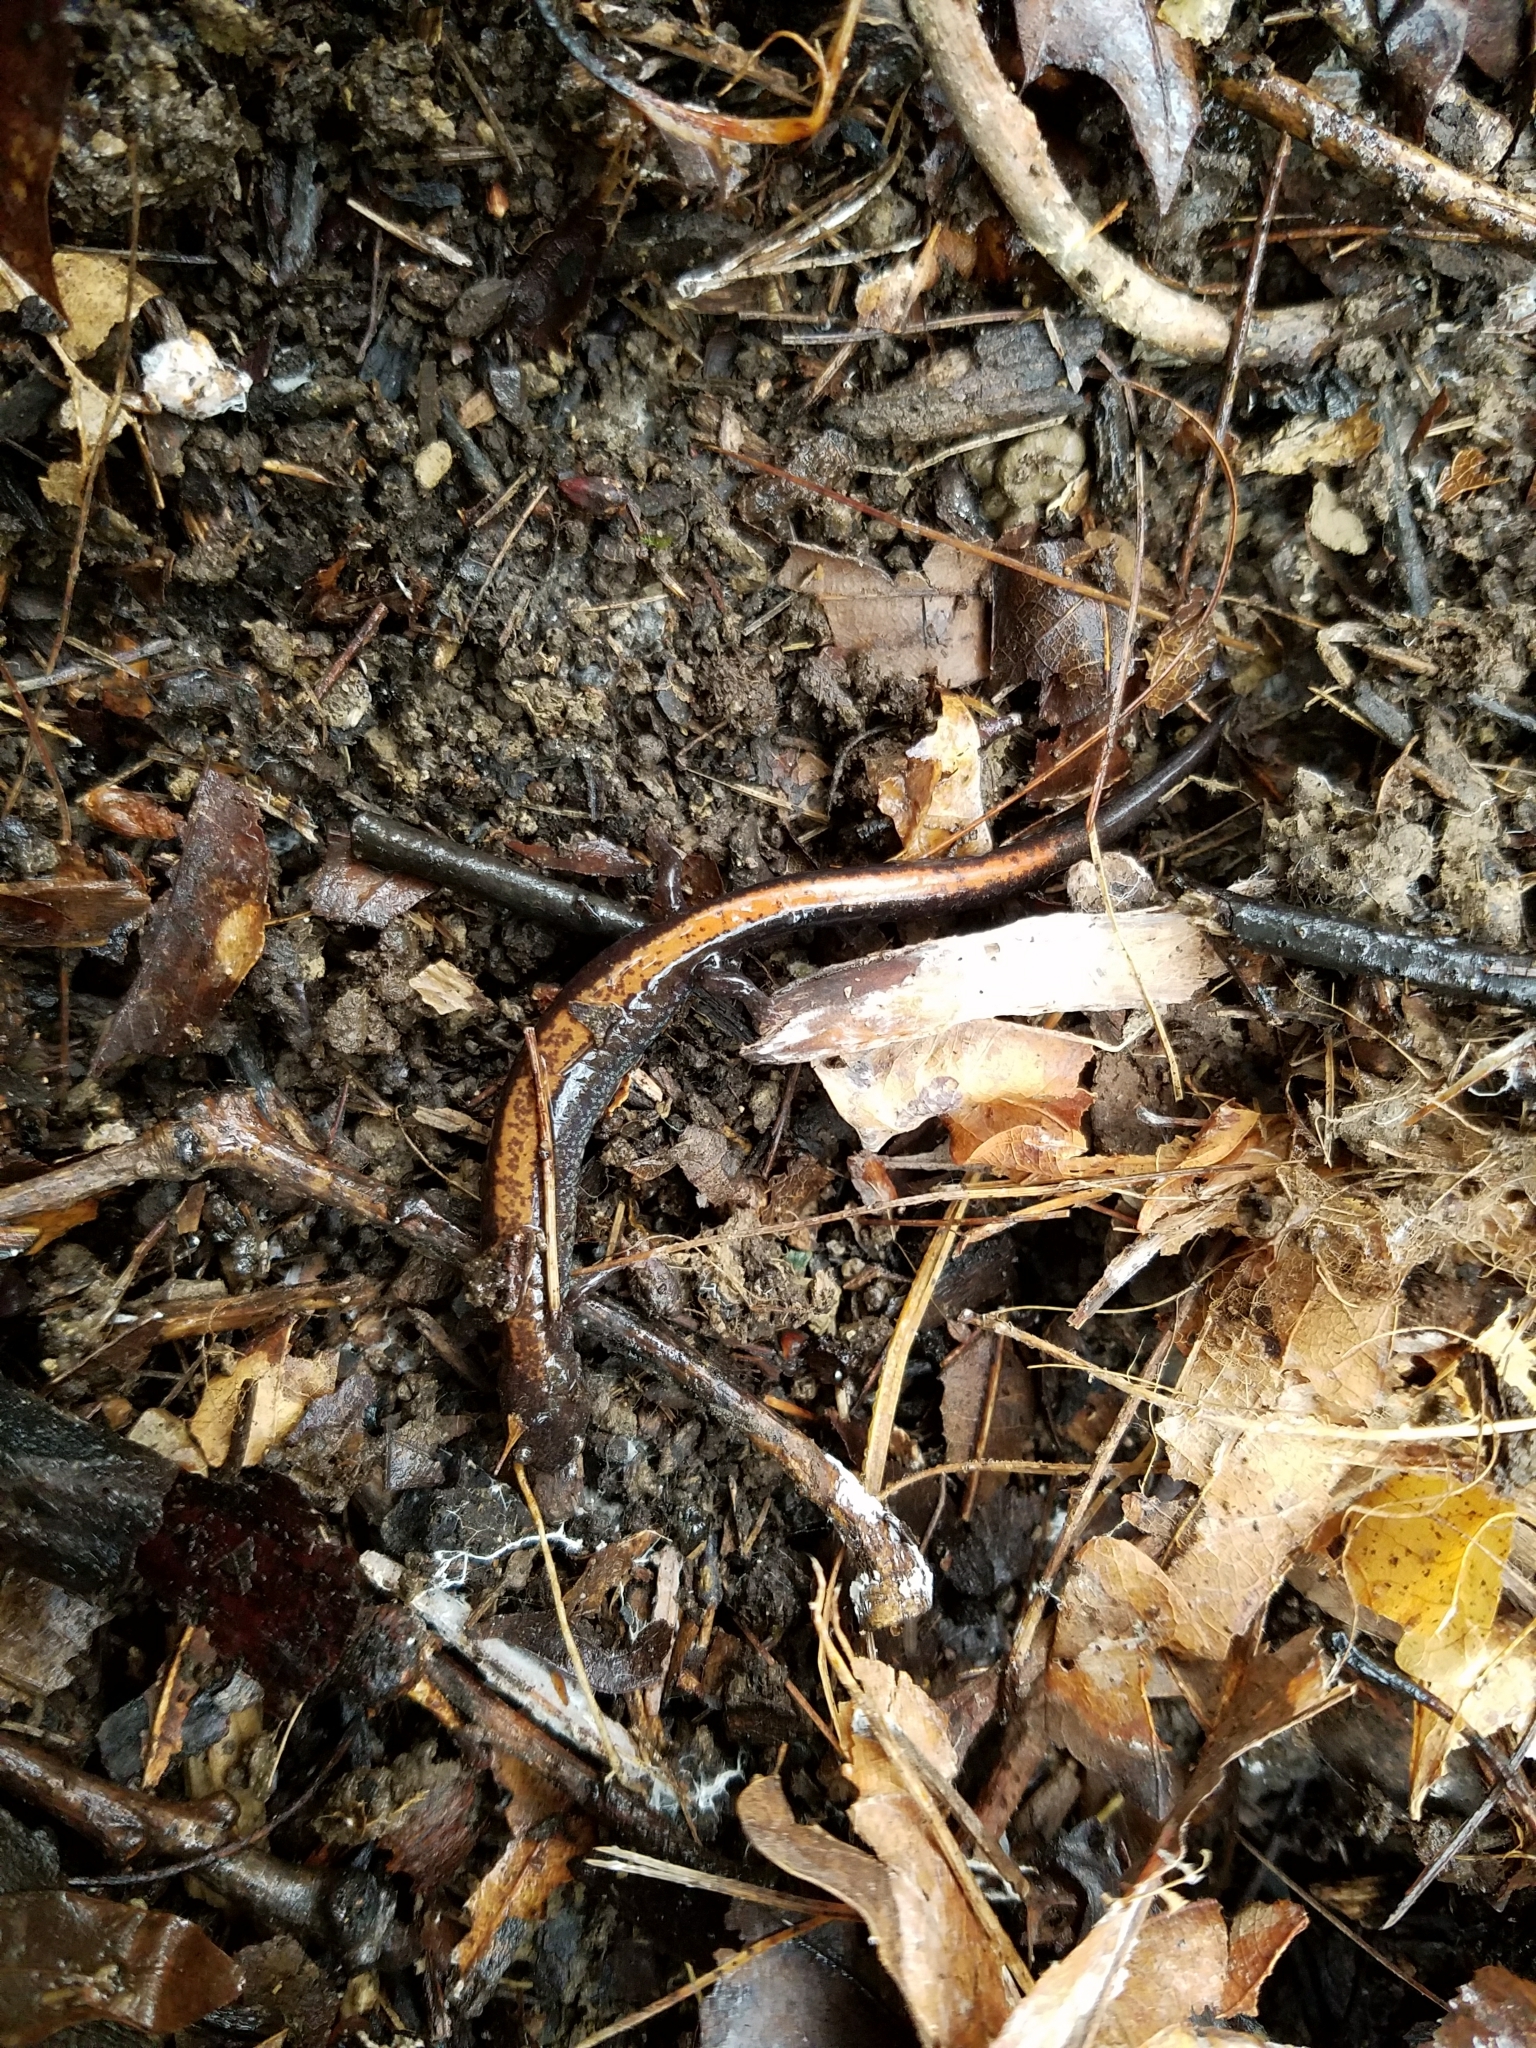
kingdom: Animalia
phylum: Chordata
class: Amphibia
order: Caudata
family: Plethodontidae
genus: Plethodon
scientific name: Plethodon cinereus
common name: Redback salamander
